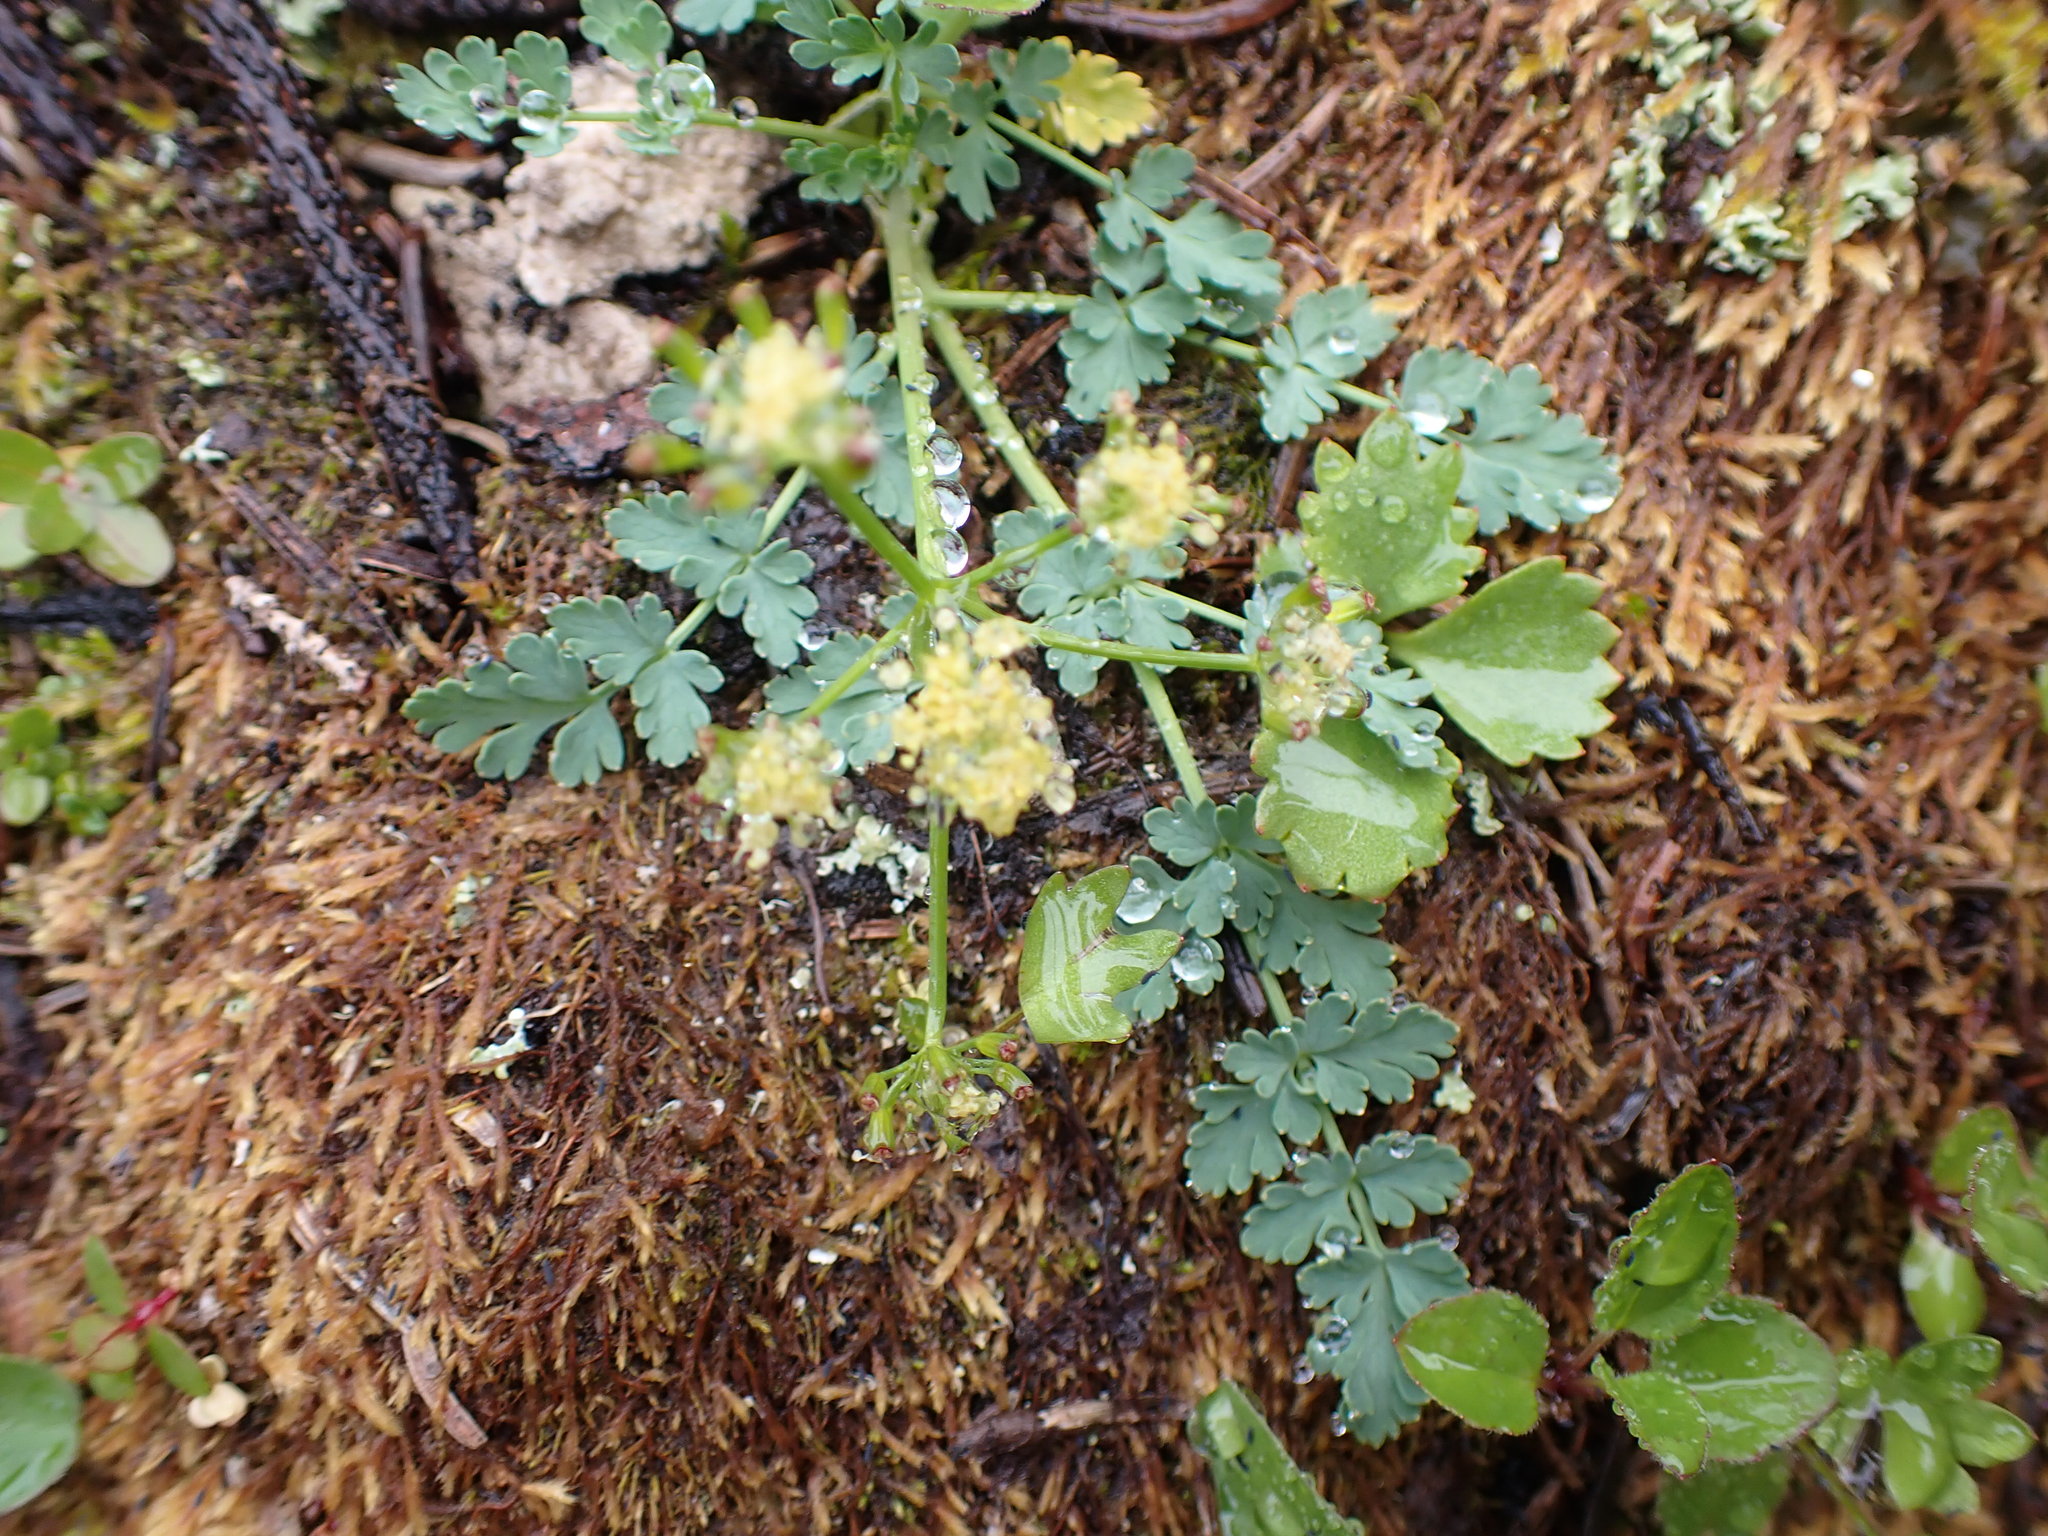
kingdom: Plantae
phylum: Tracheophyta
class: Magnoliopsida
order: Apiales
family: Apiaceae
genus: Lomatium
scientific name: Lomatium martindalei
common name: Cascade desert-parsley
